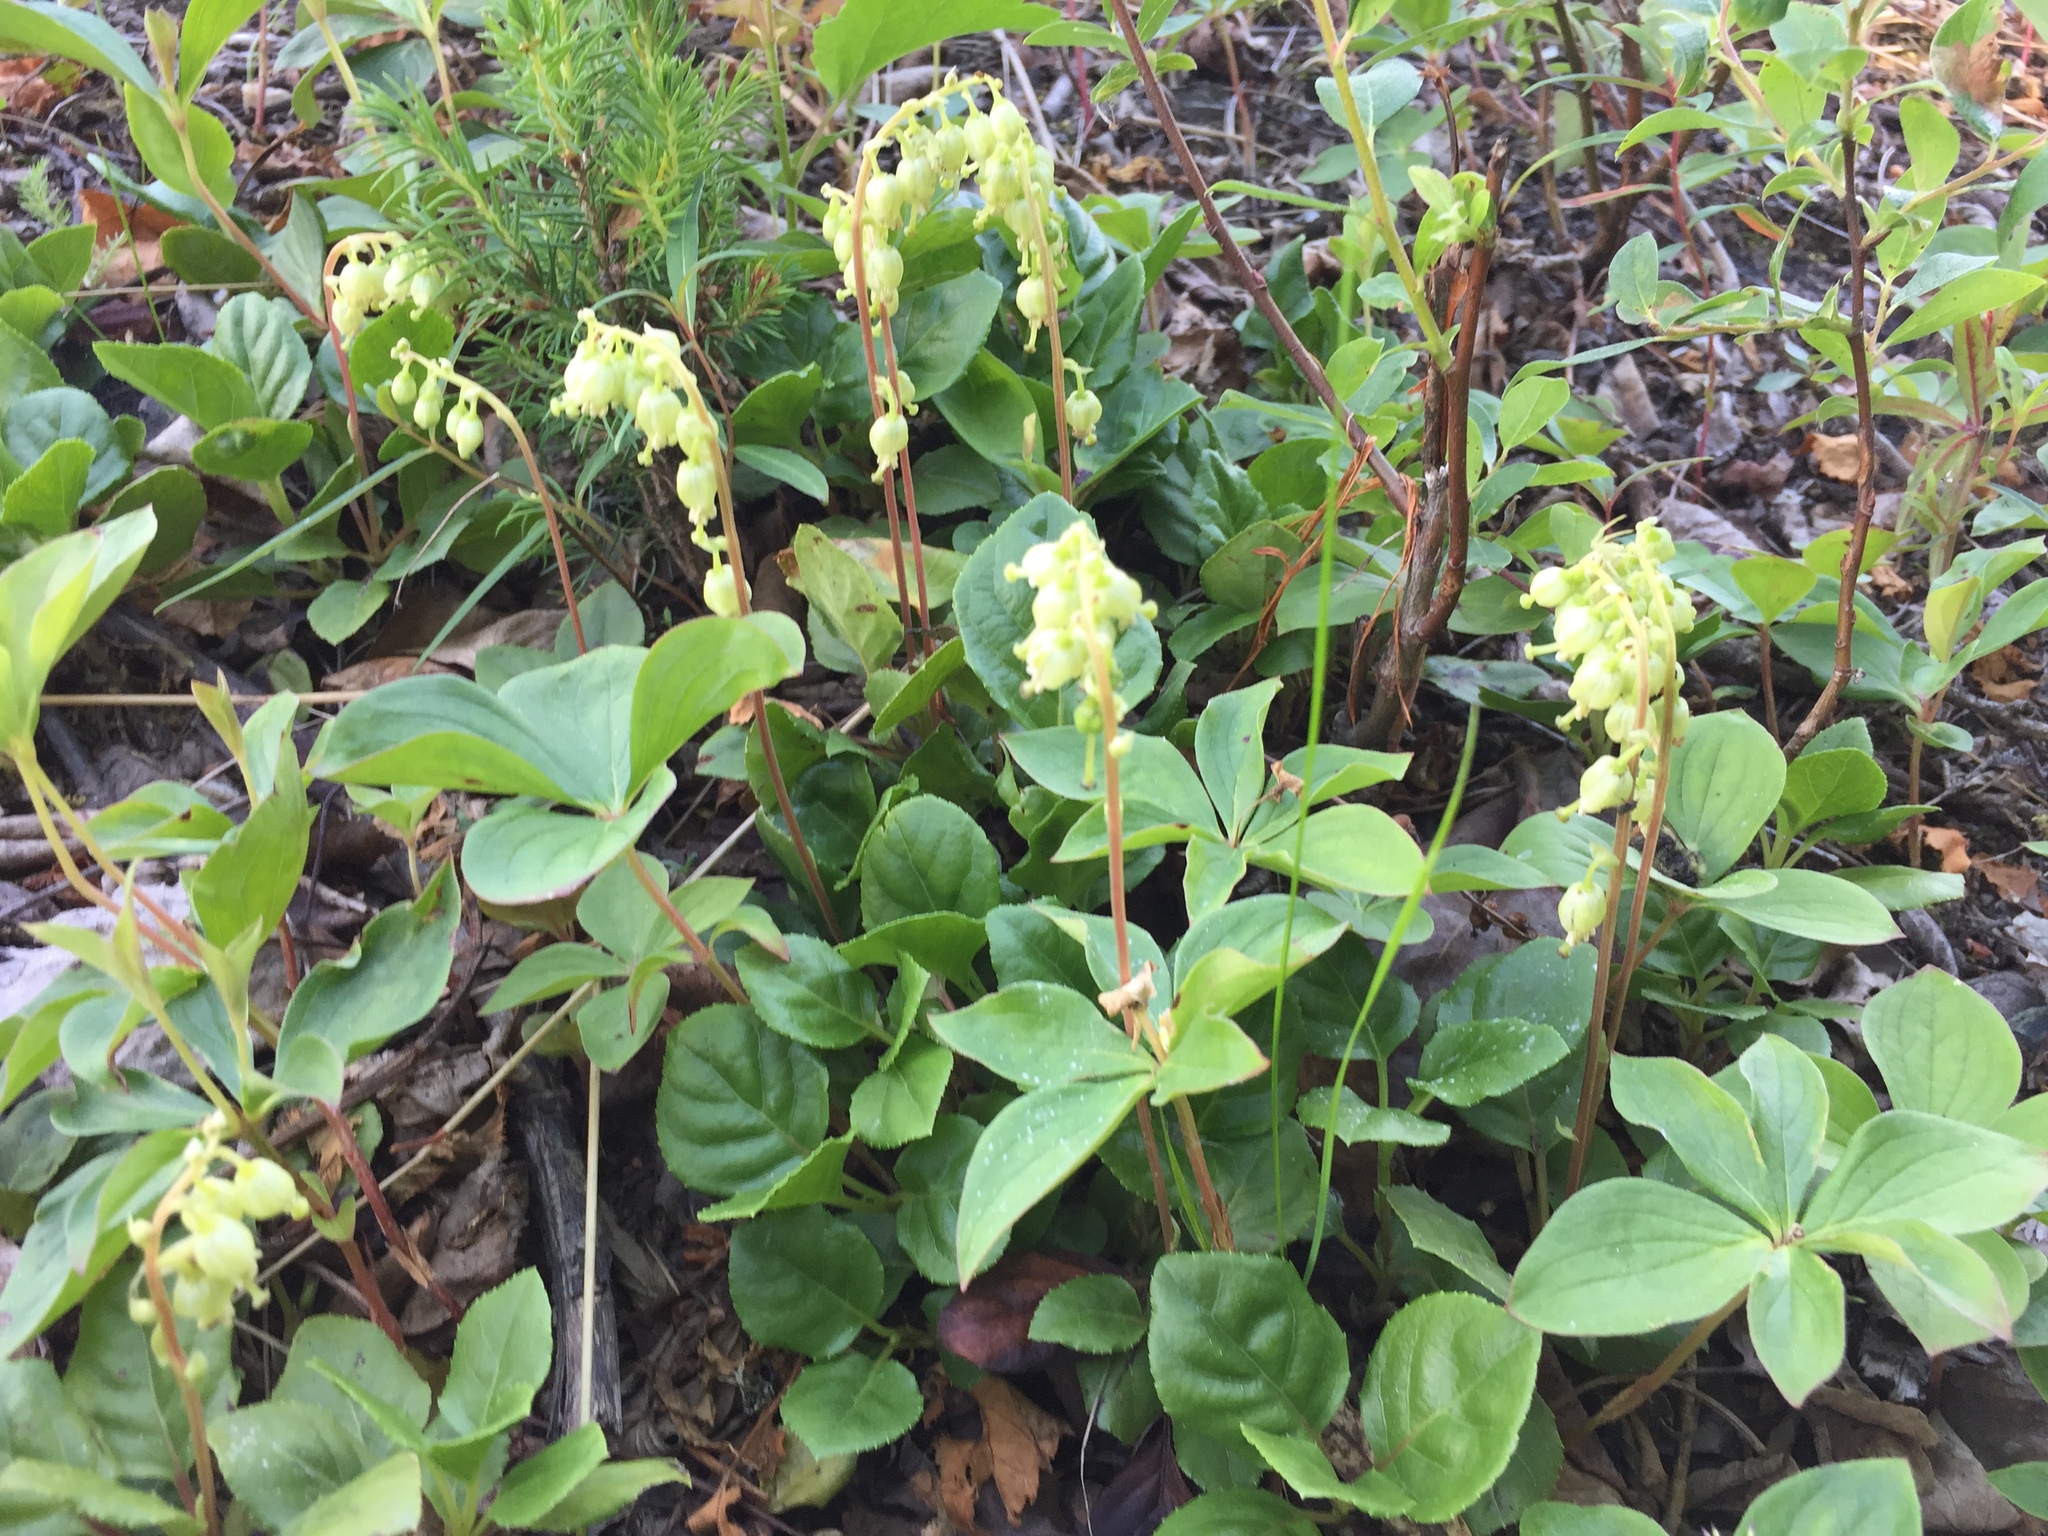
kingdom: Plantae
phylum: Tracheophyta
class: Magnoliopsida
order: Ericales
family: Ericaceae
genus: Orthilia
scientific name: Orthilia secunda
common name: One-sided orthilia
